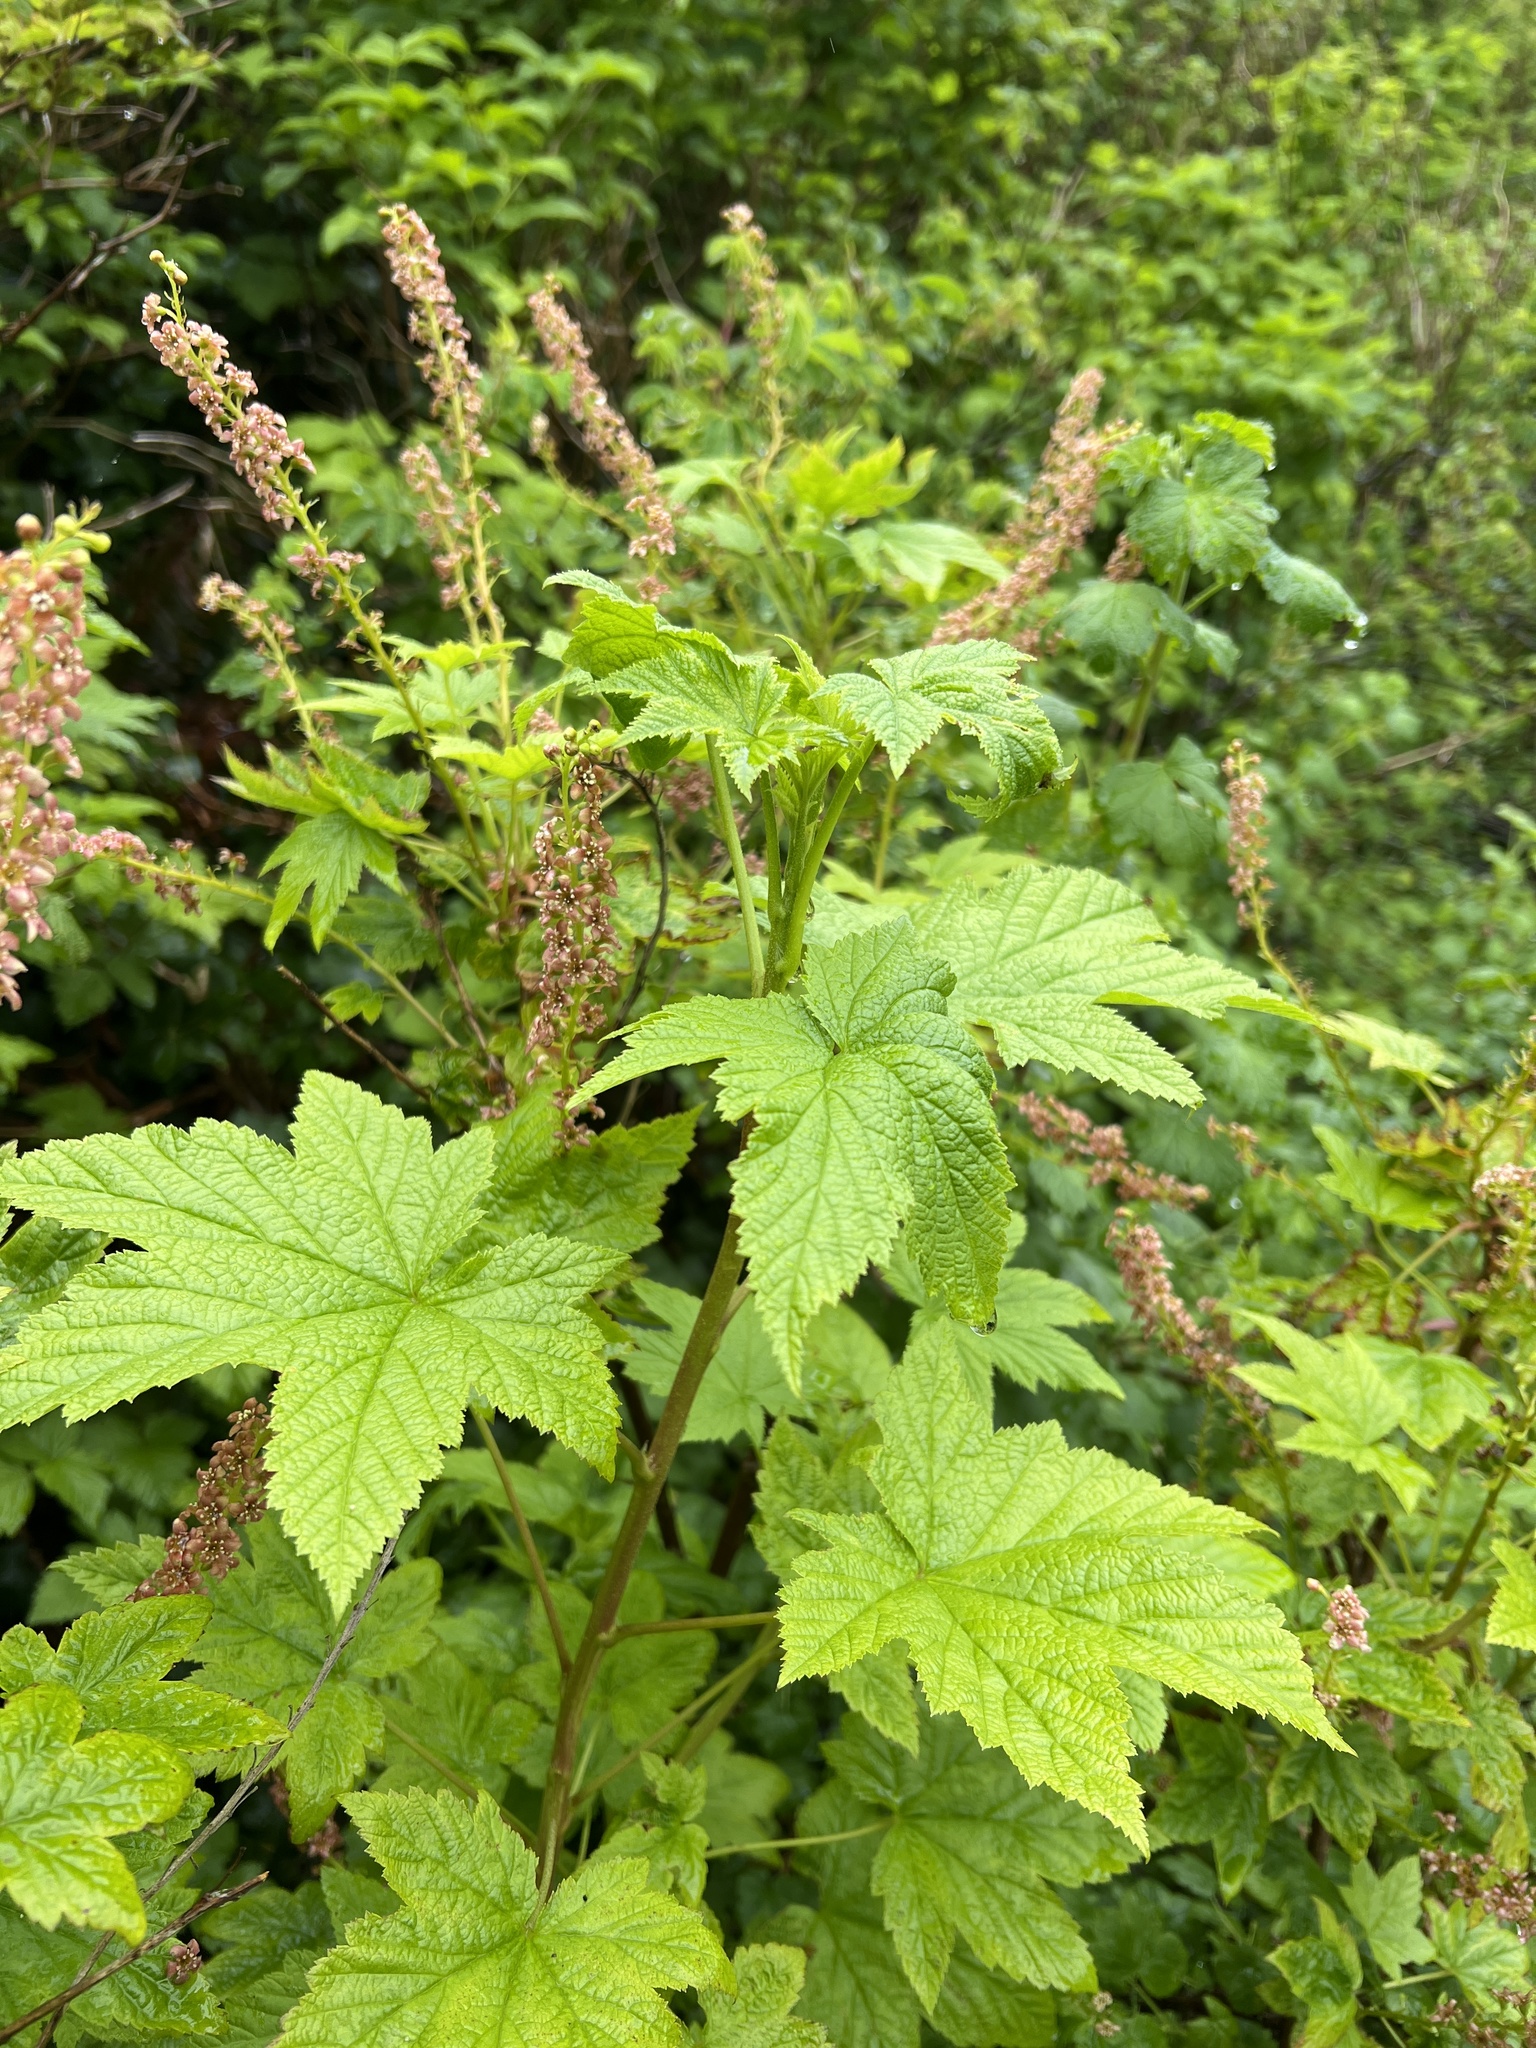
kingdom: Plantae
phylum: Tracheophyta
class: Magnoliopsida
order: Saxifragales
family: Grossulariaceae
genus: Ribes
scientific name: Ribes bracteosum
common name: California black currant
